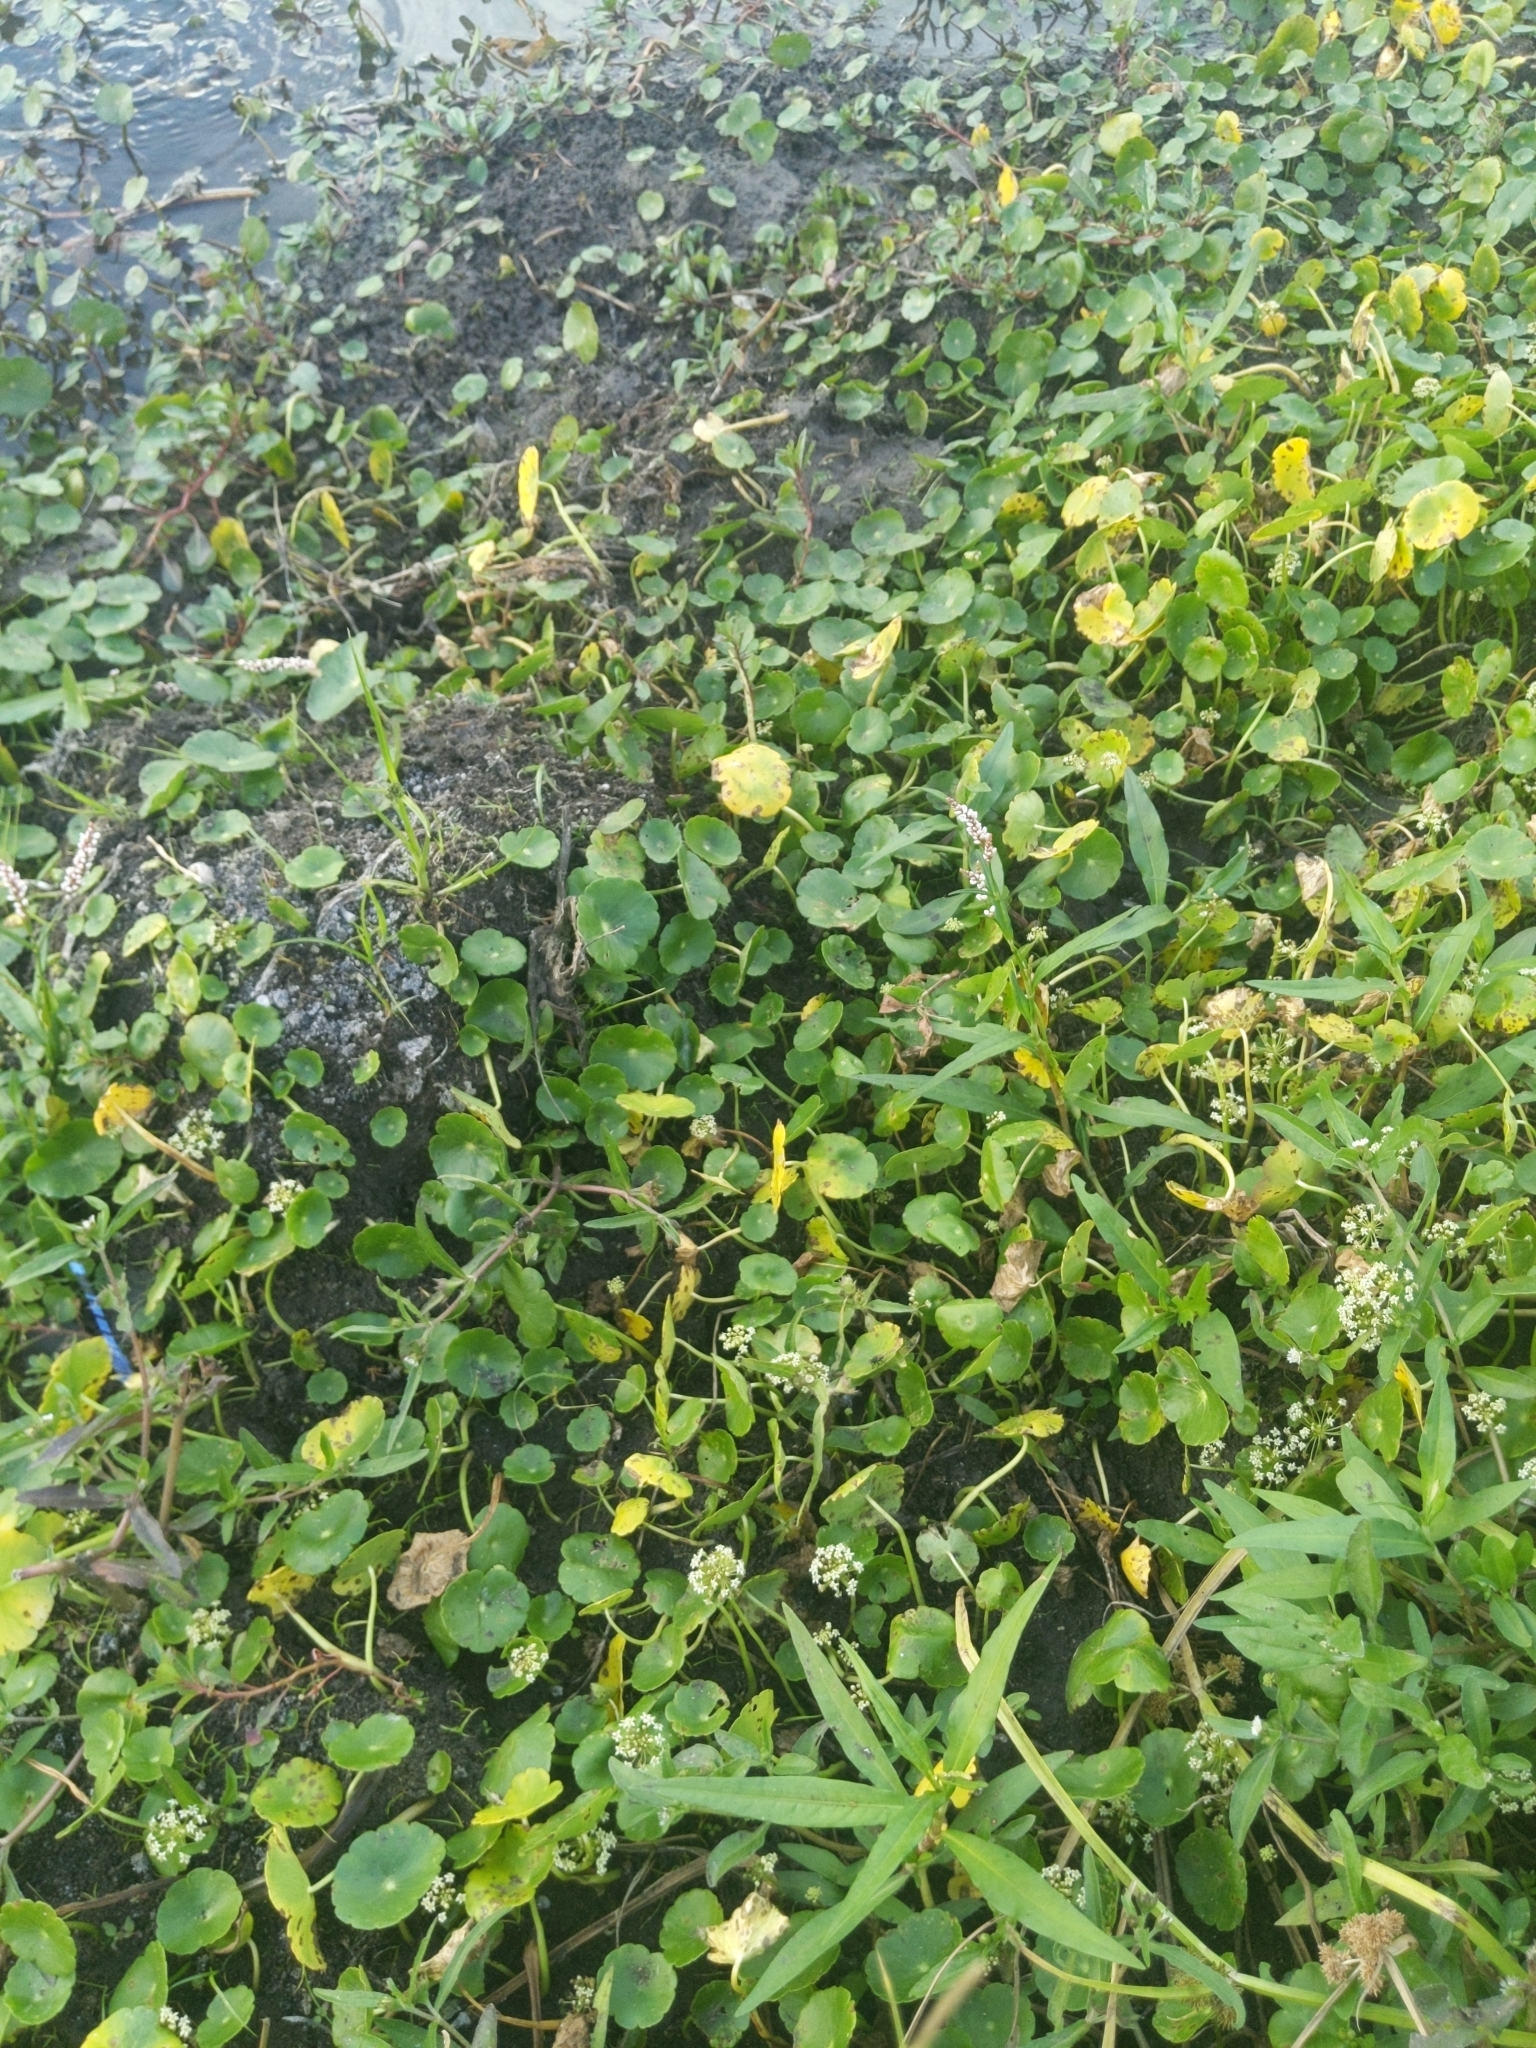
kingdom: Plantae
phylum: Tracheophyta
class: Magnoliopsida
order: Apiales
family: Araliaceae
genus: Hydrocotyle
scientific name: Hydrocotyle umbellata
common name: Water pennywort
